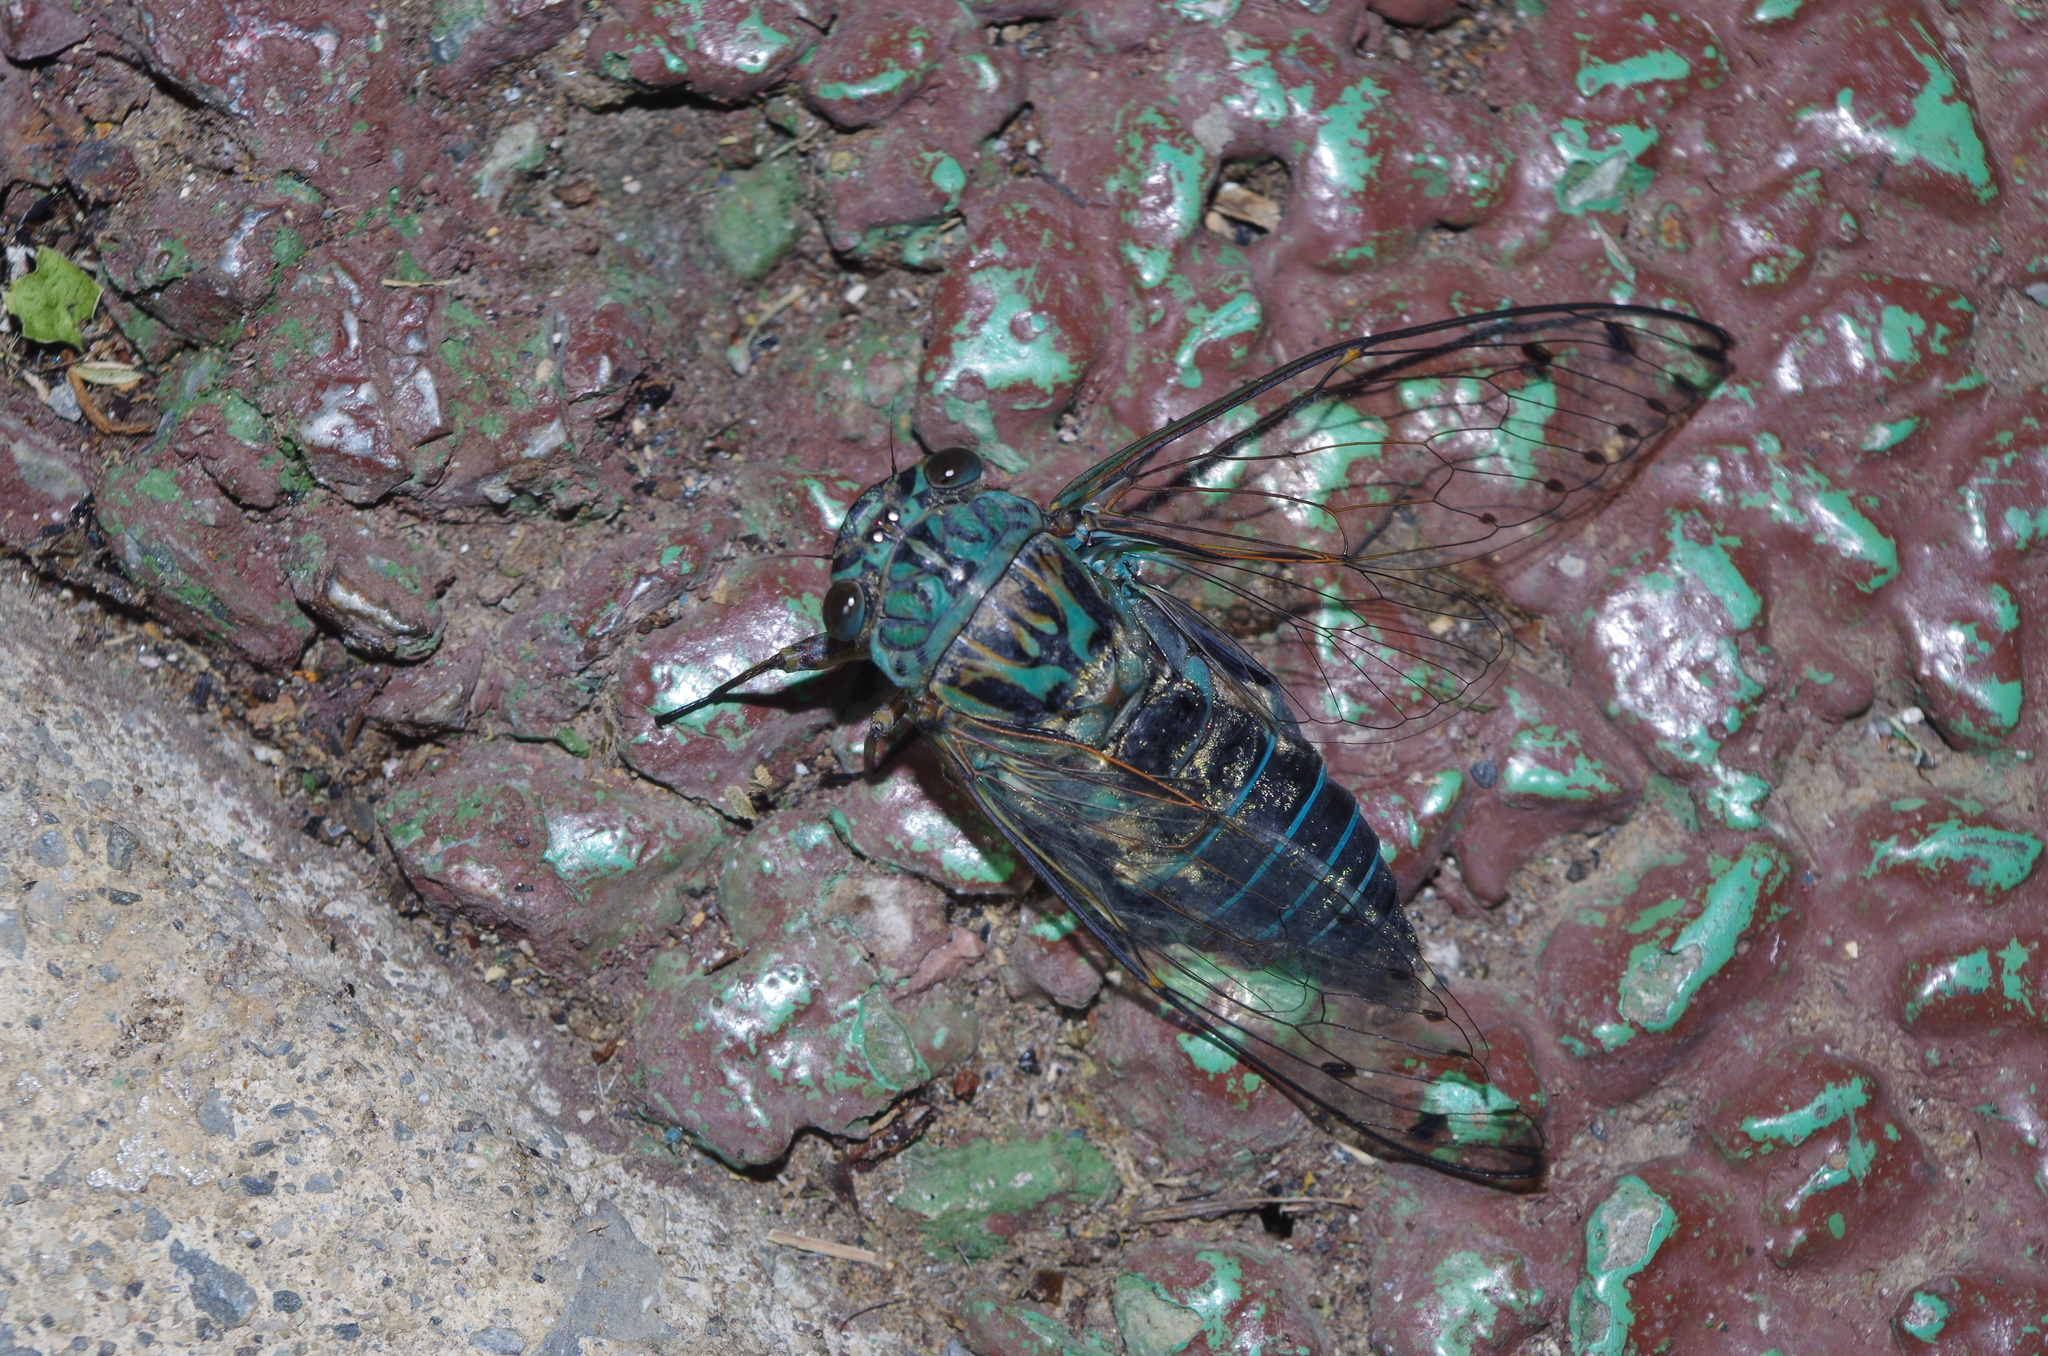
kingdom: Animalia
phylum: Arthropoda
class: Insecta
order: Hemiptera
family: Cicadidae
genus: Meimuna
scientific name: Meimuna oshimensis
